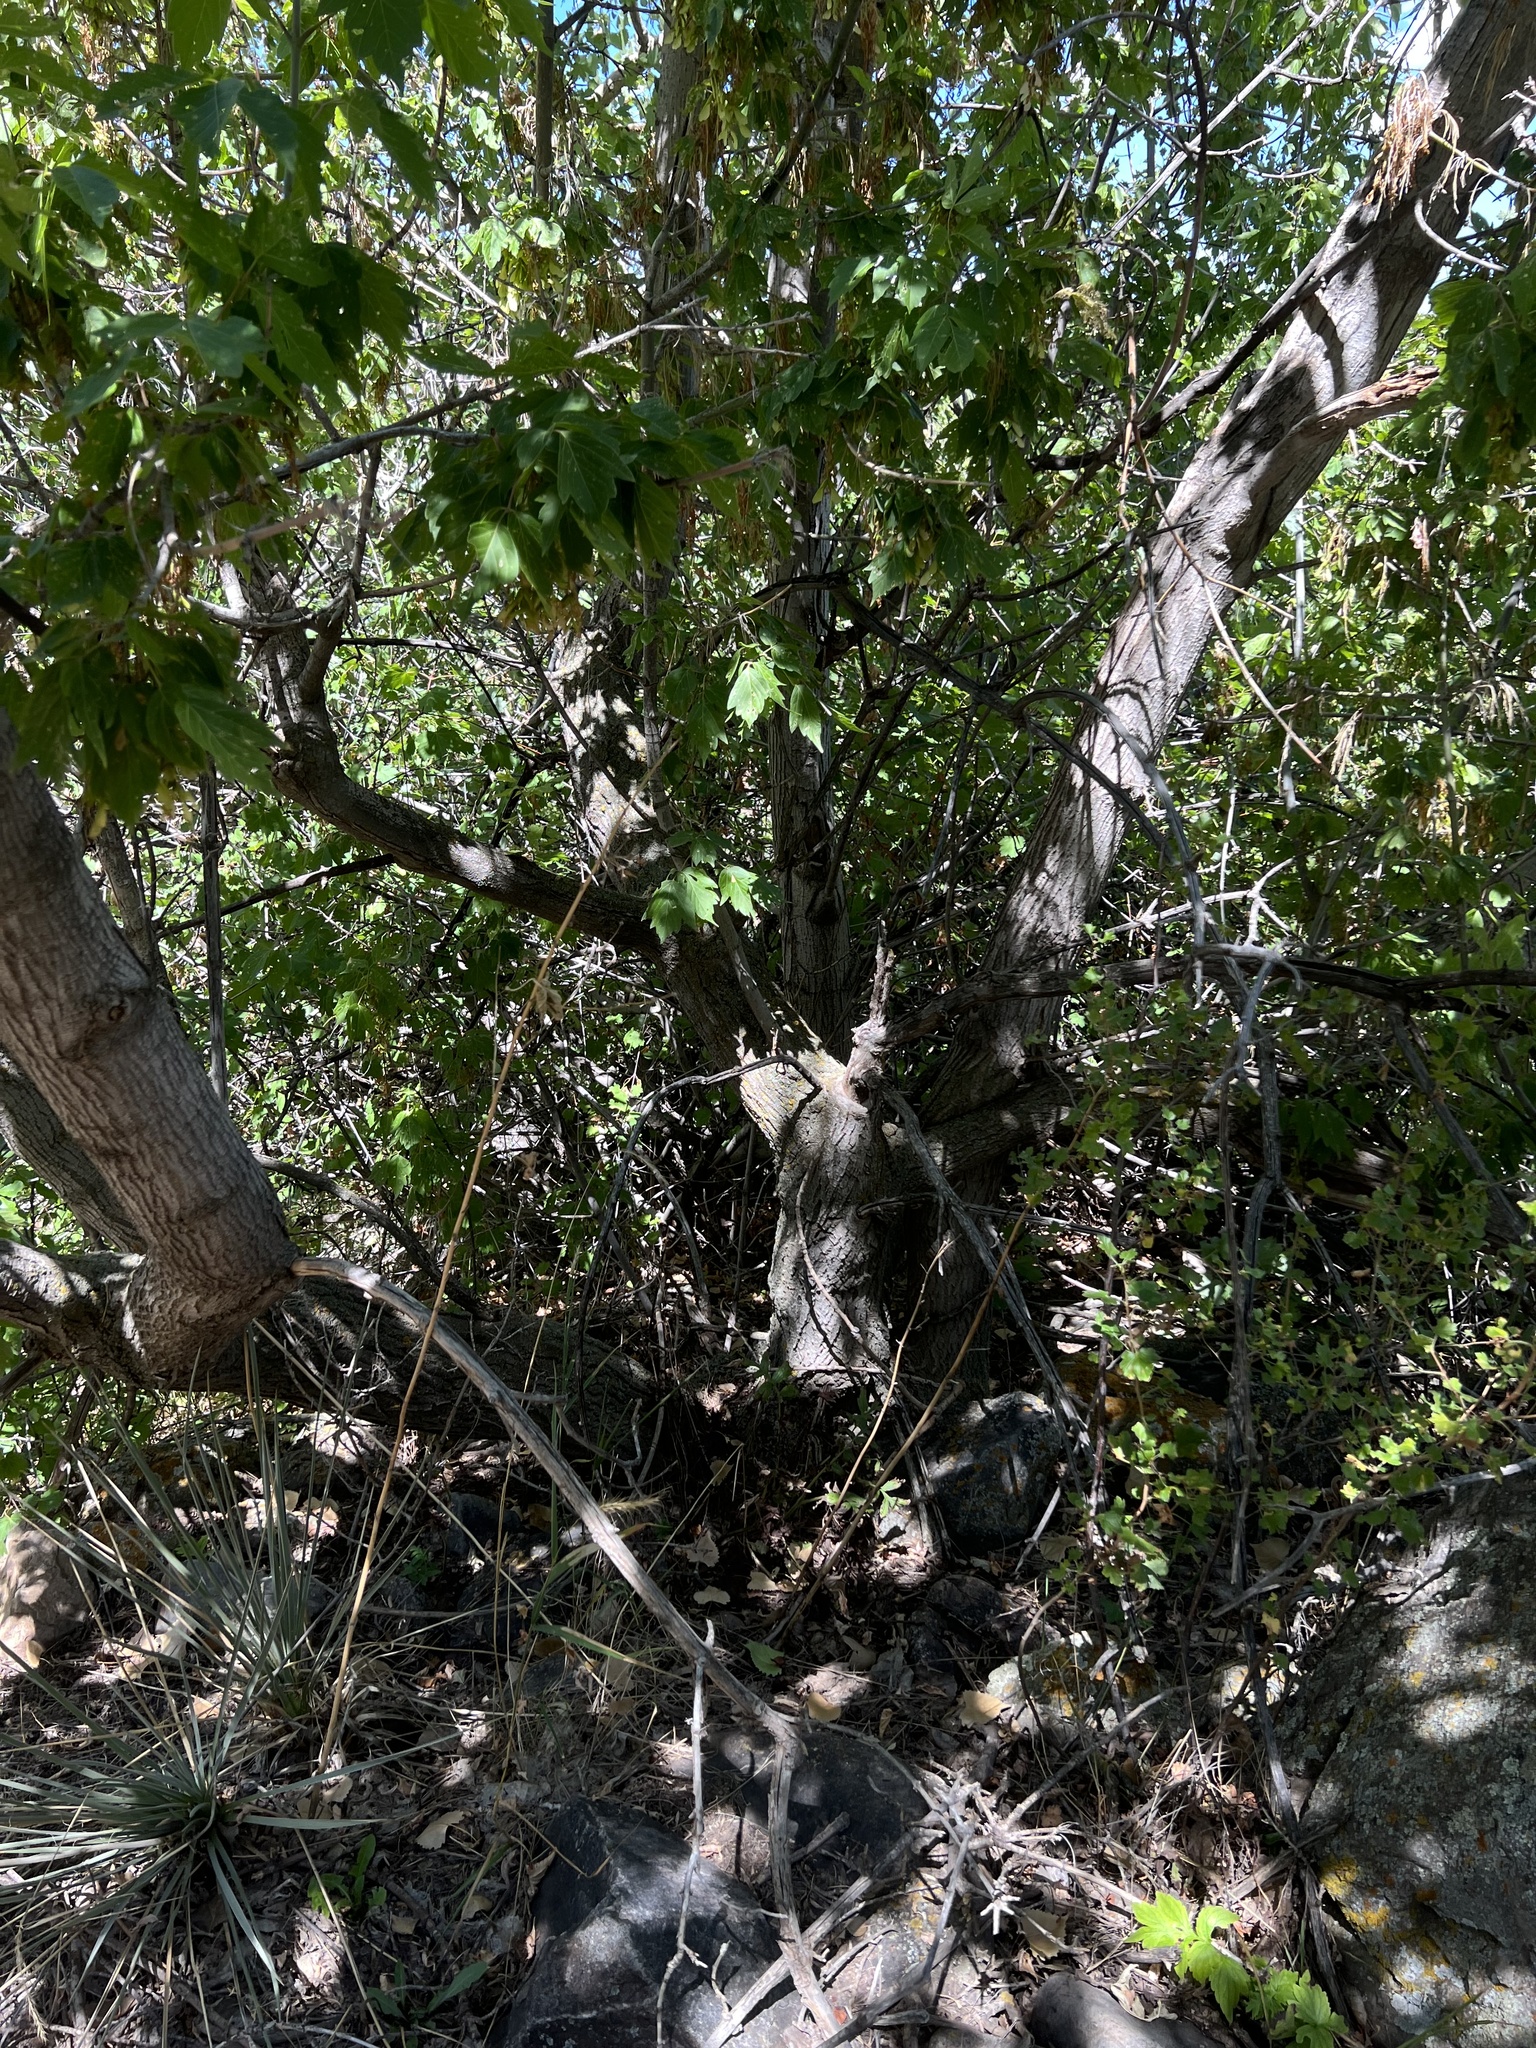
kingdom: Plantae
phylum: Tracheophyta
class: Magnoliopsida
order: Sapindales
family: Sapindaceae
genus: Acer
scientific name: Acer negundo
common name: Ashleaf maple
